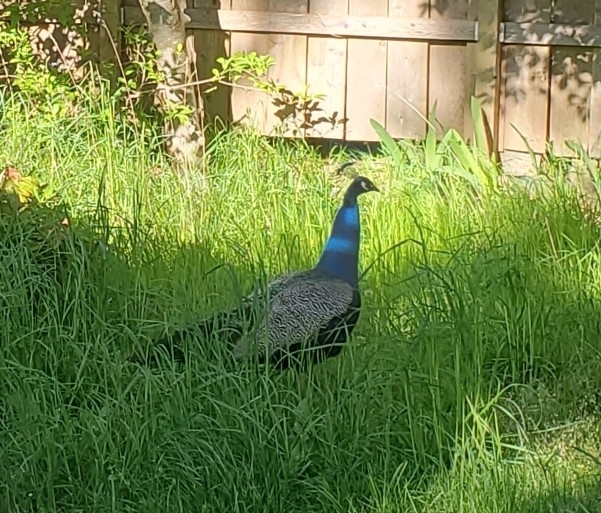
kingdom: Animalia
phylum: Chordata
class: Aves
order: Galliformes
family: Phasianidae
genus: Pavo
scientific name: Pavo cristatus
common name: Indian peafowl
